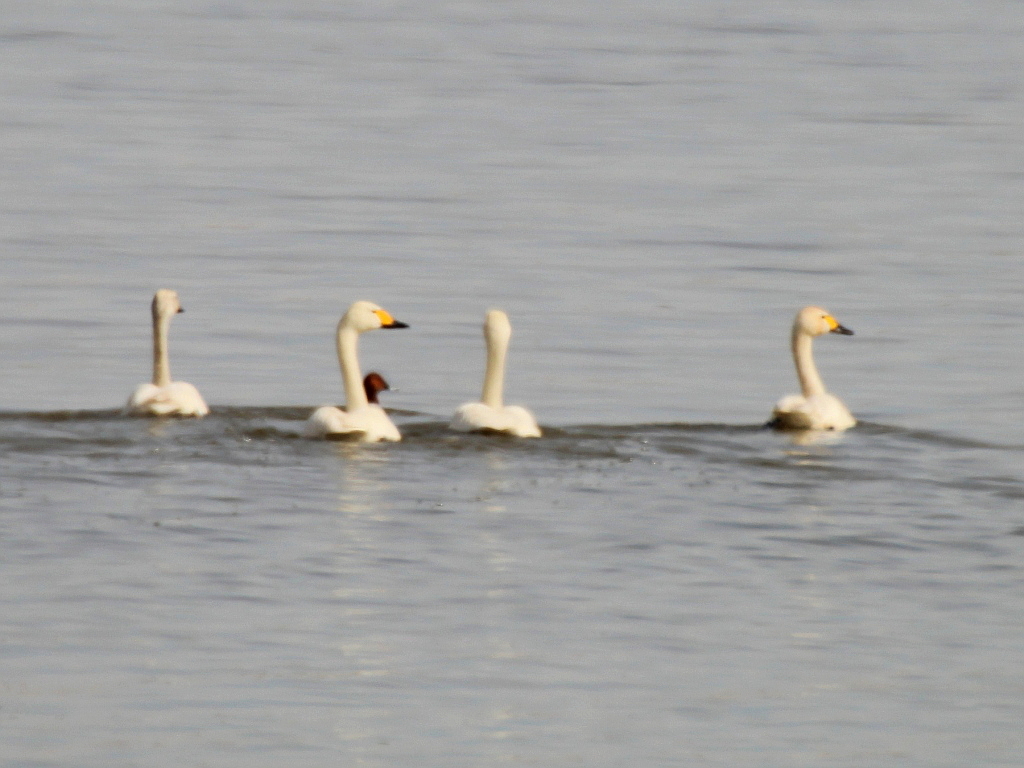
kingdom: Animalia
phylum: Chordata
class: Aves
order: Anseriformes
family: Anatidae
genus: Cygnus
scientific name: Cygnus columbianus
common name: Tundra swan
